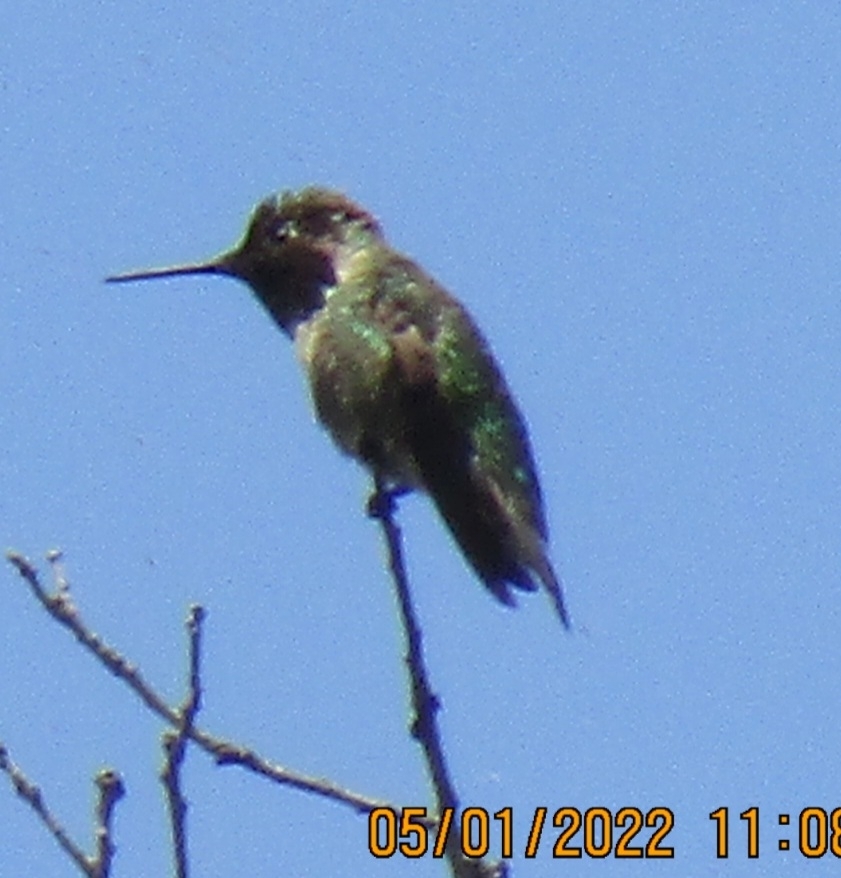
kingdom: Animalia
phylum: Chordata
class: Aves
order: Apodiformes
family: Trochilidae
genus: Calypte
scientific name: Calypte anna
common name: Anna's hummingbird
